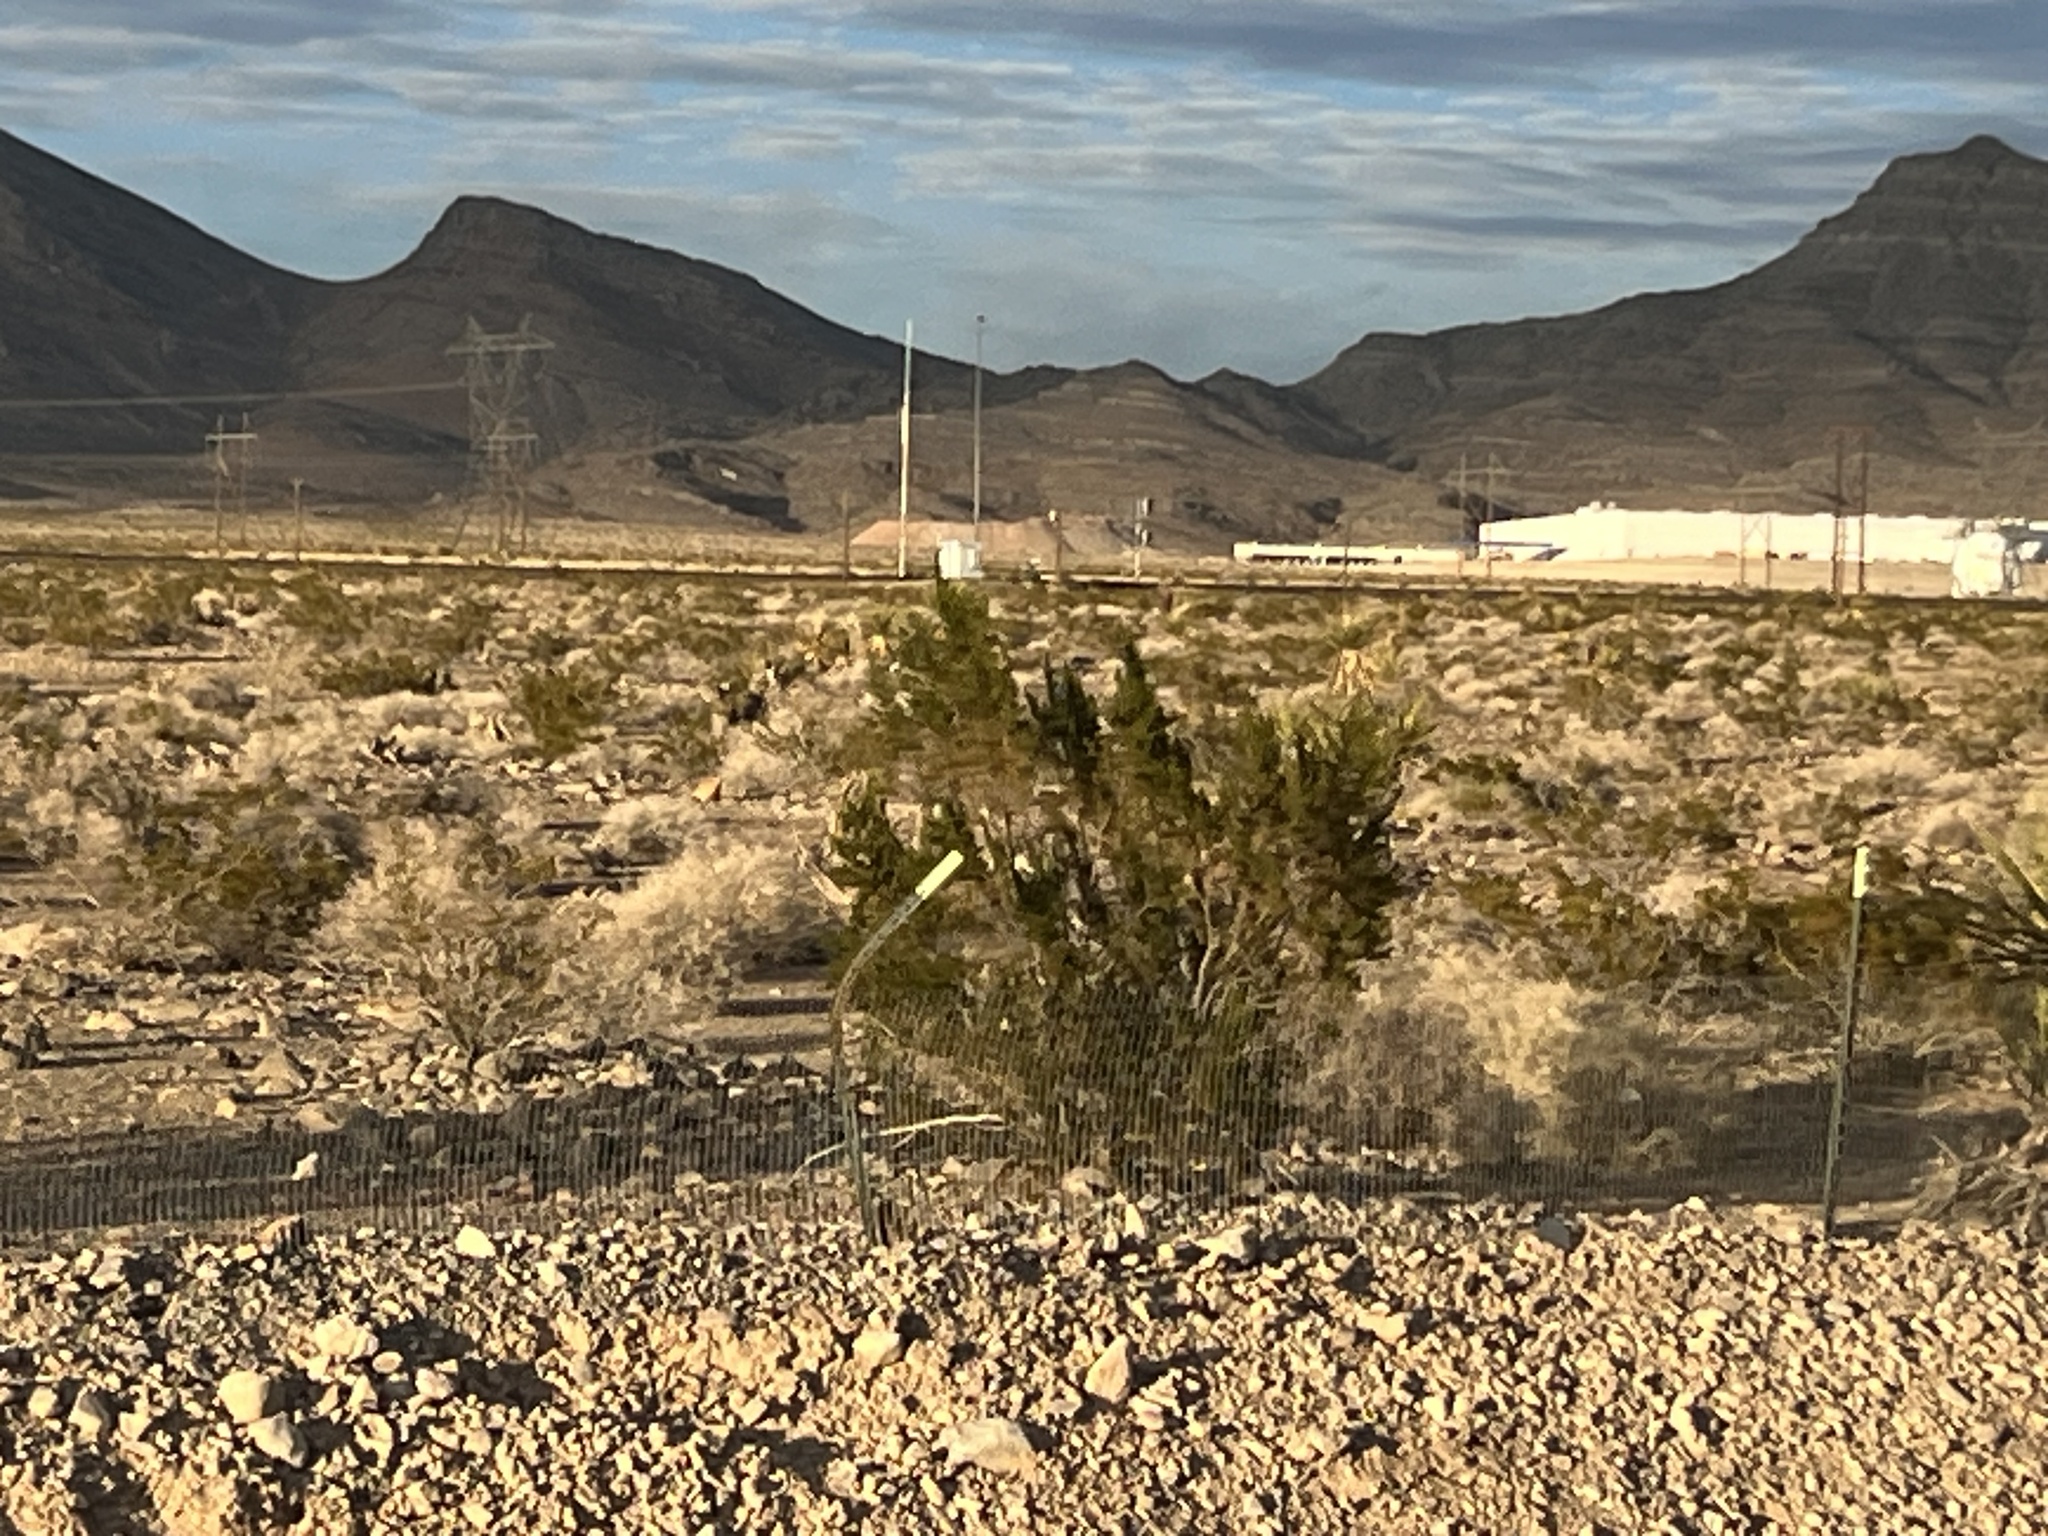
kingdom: Plantae
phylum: Tracheophyta
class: Magnoliopsida
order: Zygophyllales
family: Zygophyllaceae
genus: Larrea
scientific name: Larrea tridentata
